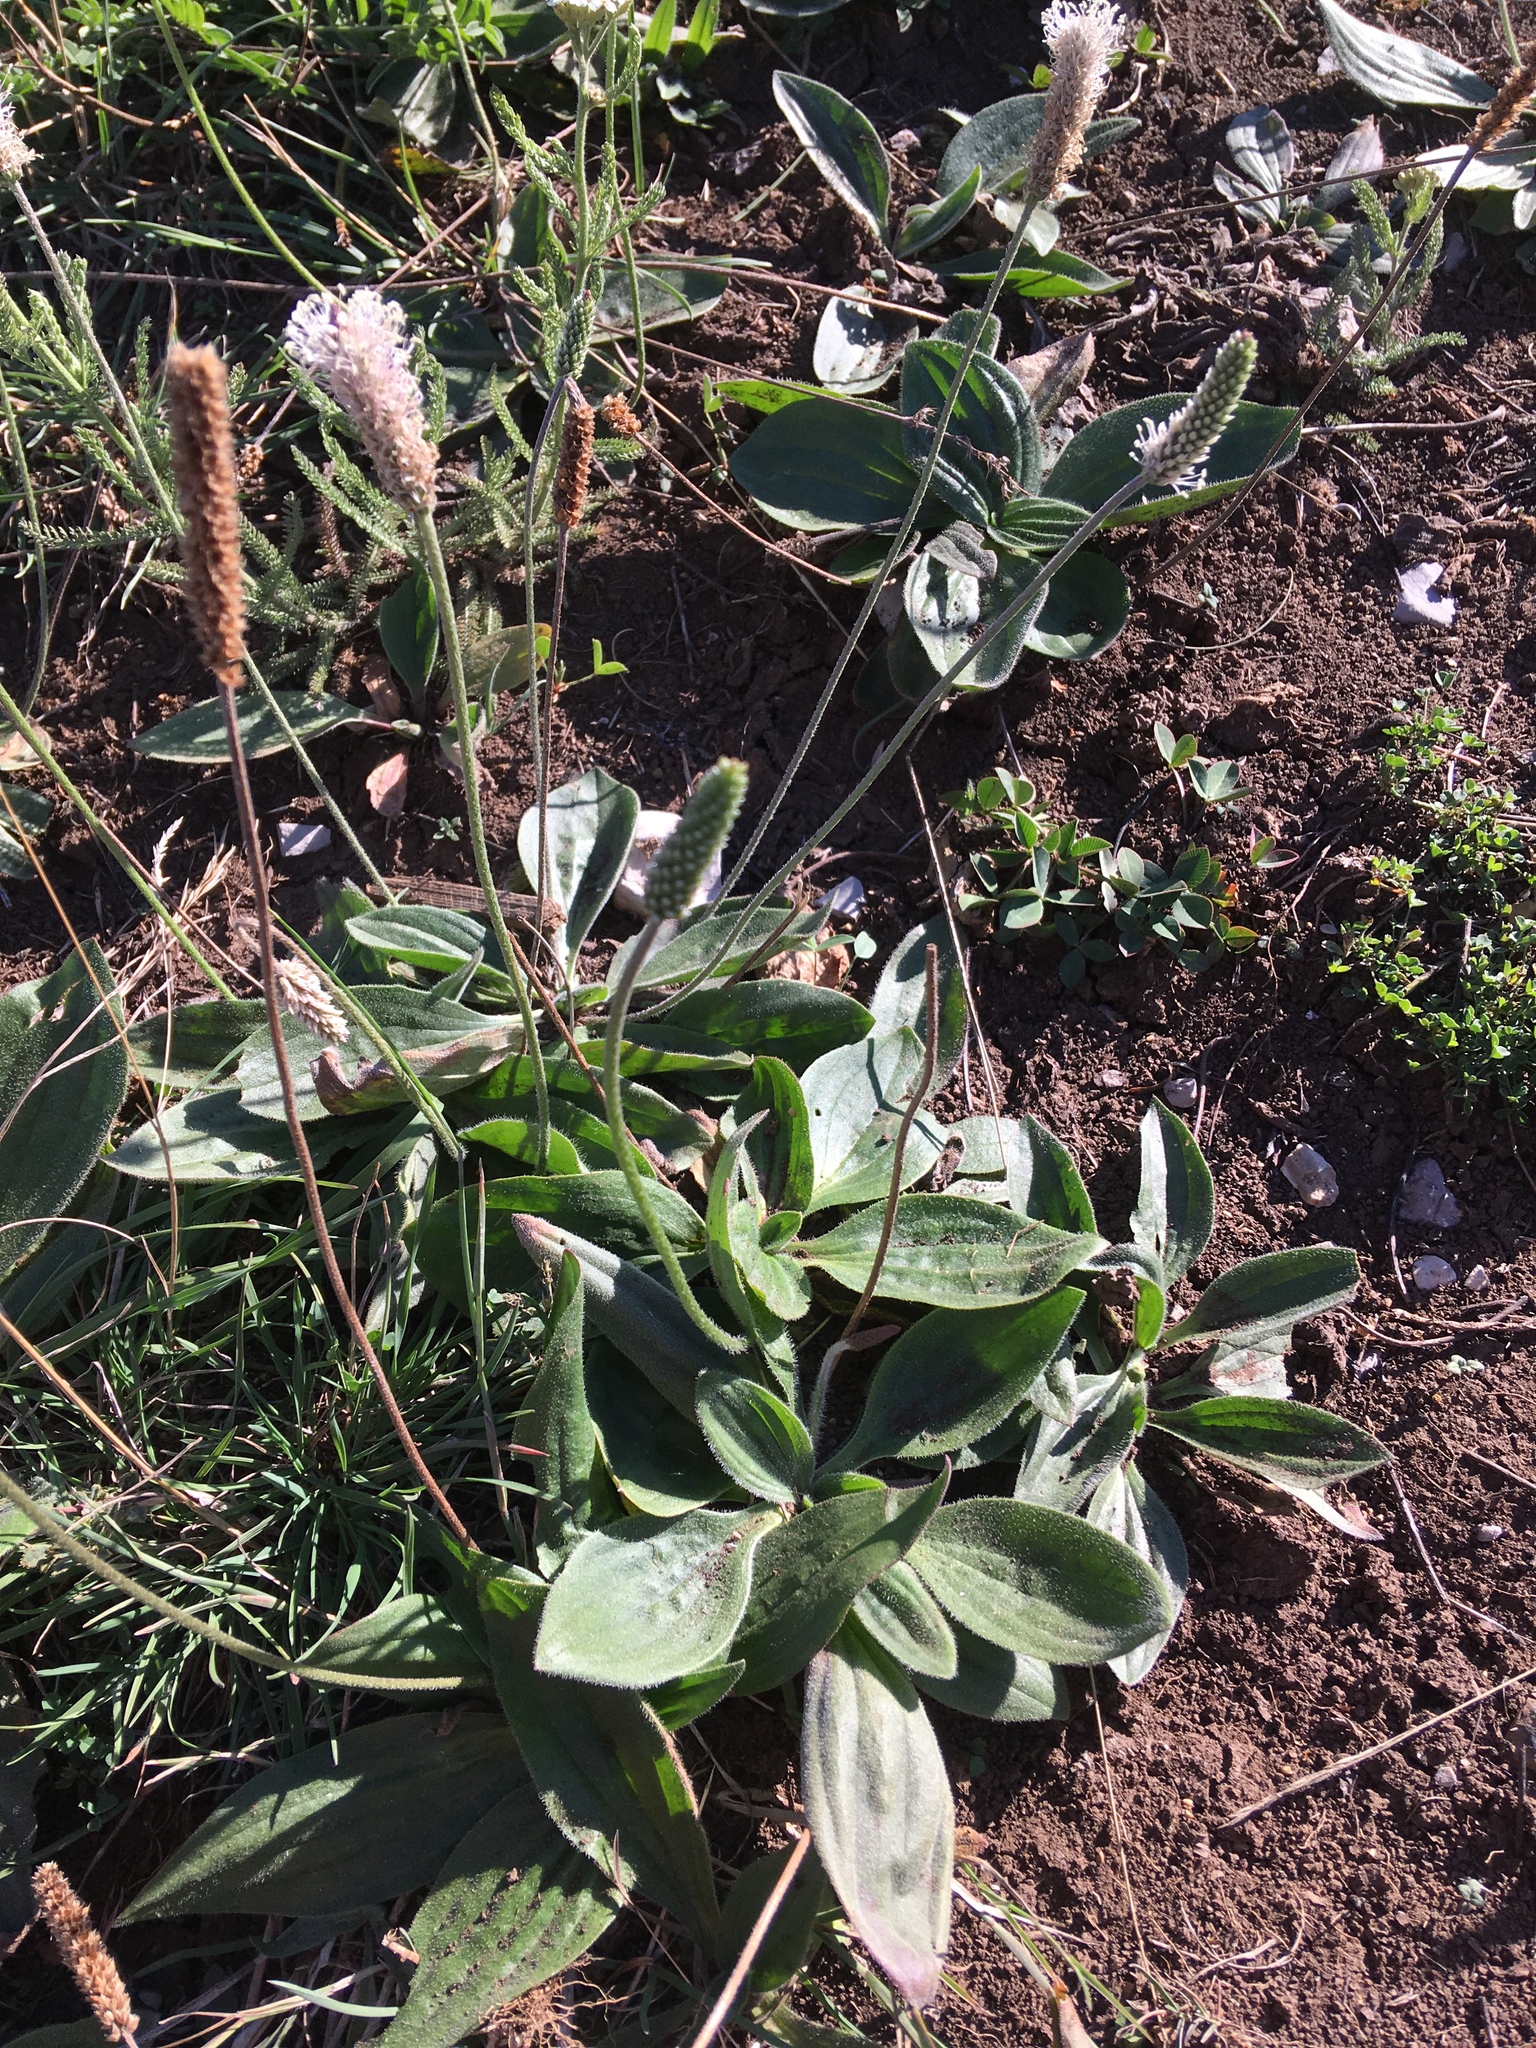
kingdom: Plantae
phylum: Tracheophyta
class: Magnoliopsida
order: Lamiales
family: Plantaginaceae
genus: Plantago
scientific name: Plantago media
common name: Hoary plantain
